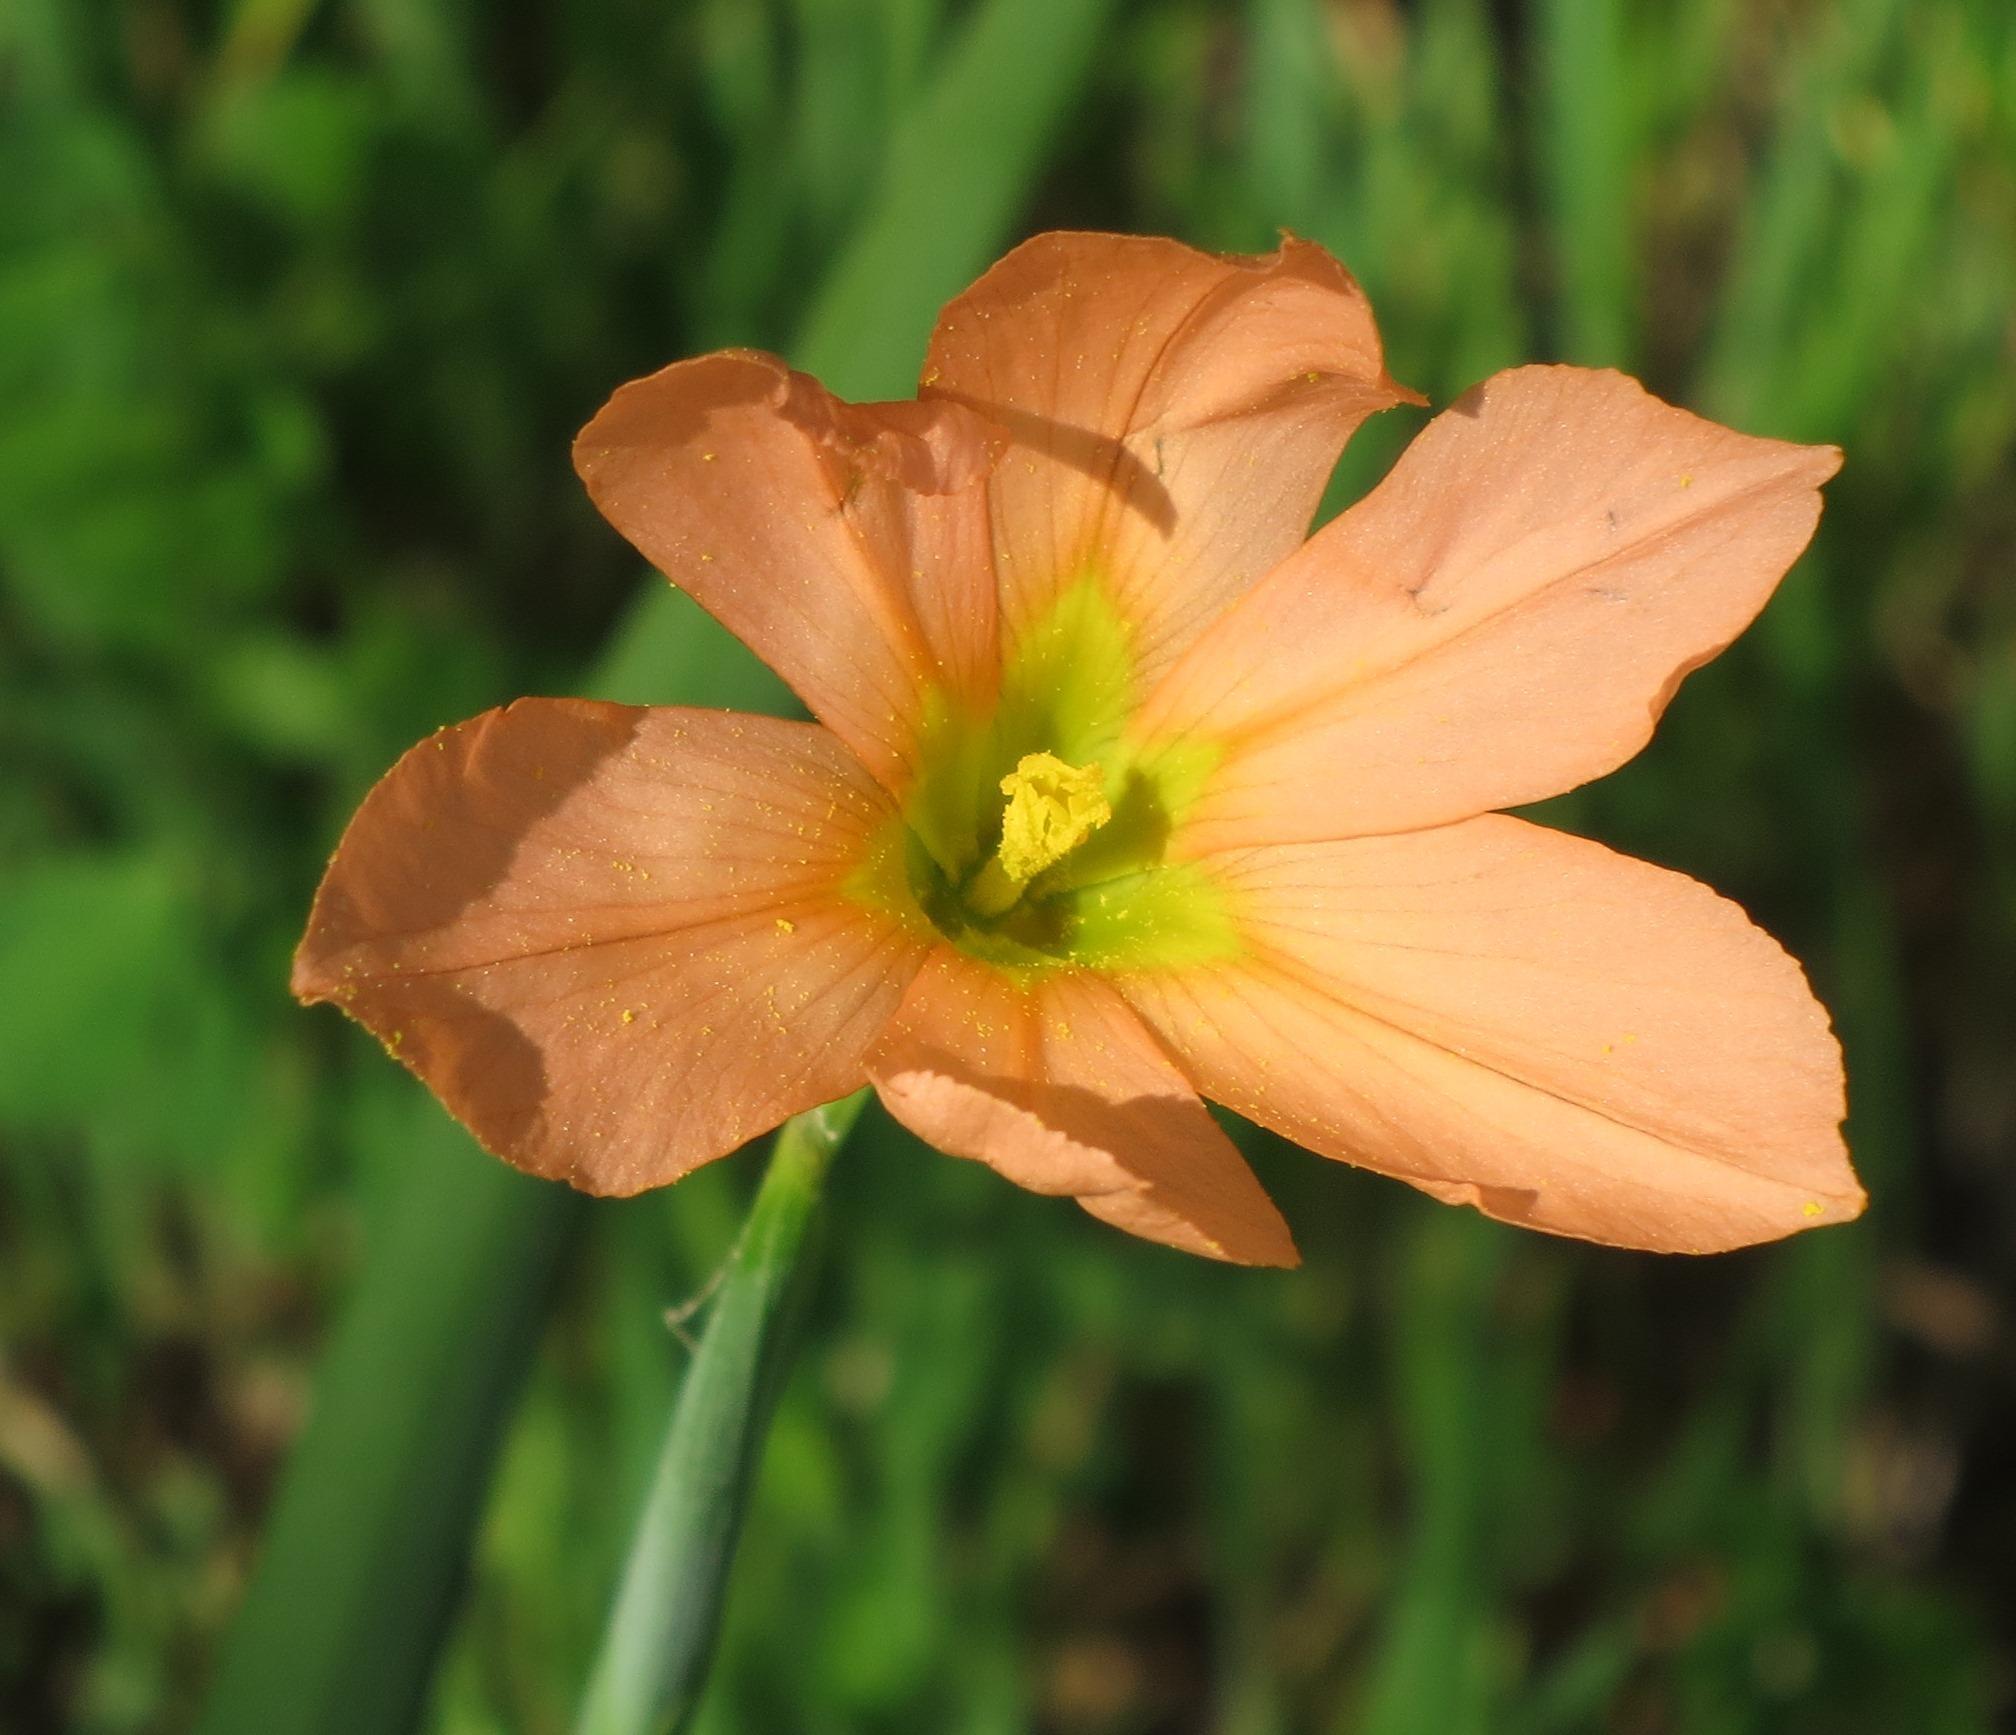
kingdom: Plantae
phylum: Tracheophyta
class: Liliopsida
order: Asparagales
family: Iridaceae
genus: Moraea
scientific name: Moraea flaccida
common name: One-leaf cape-tulip
